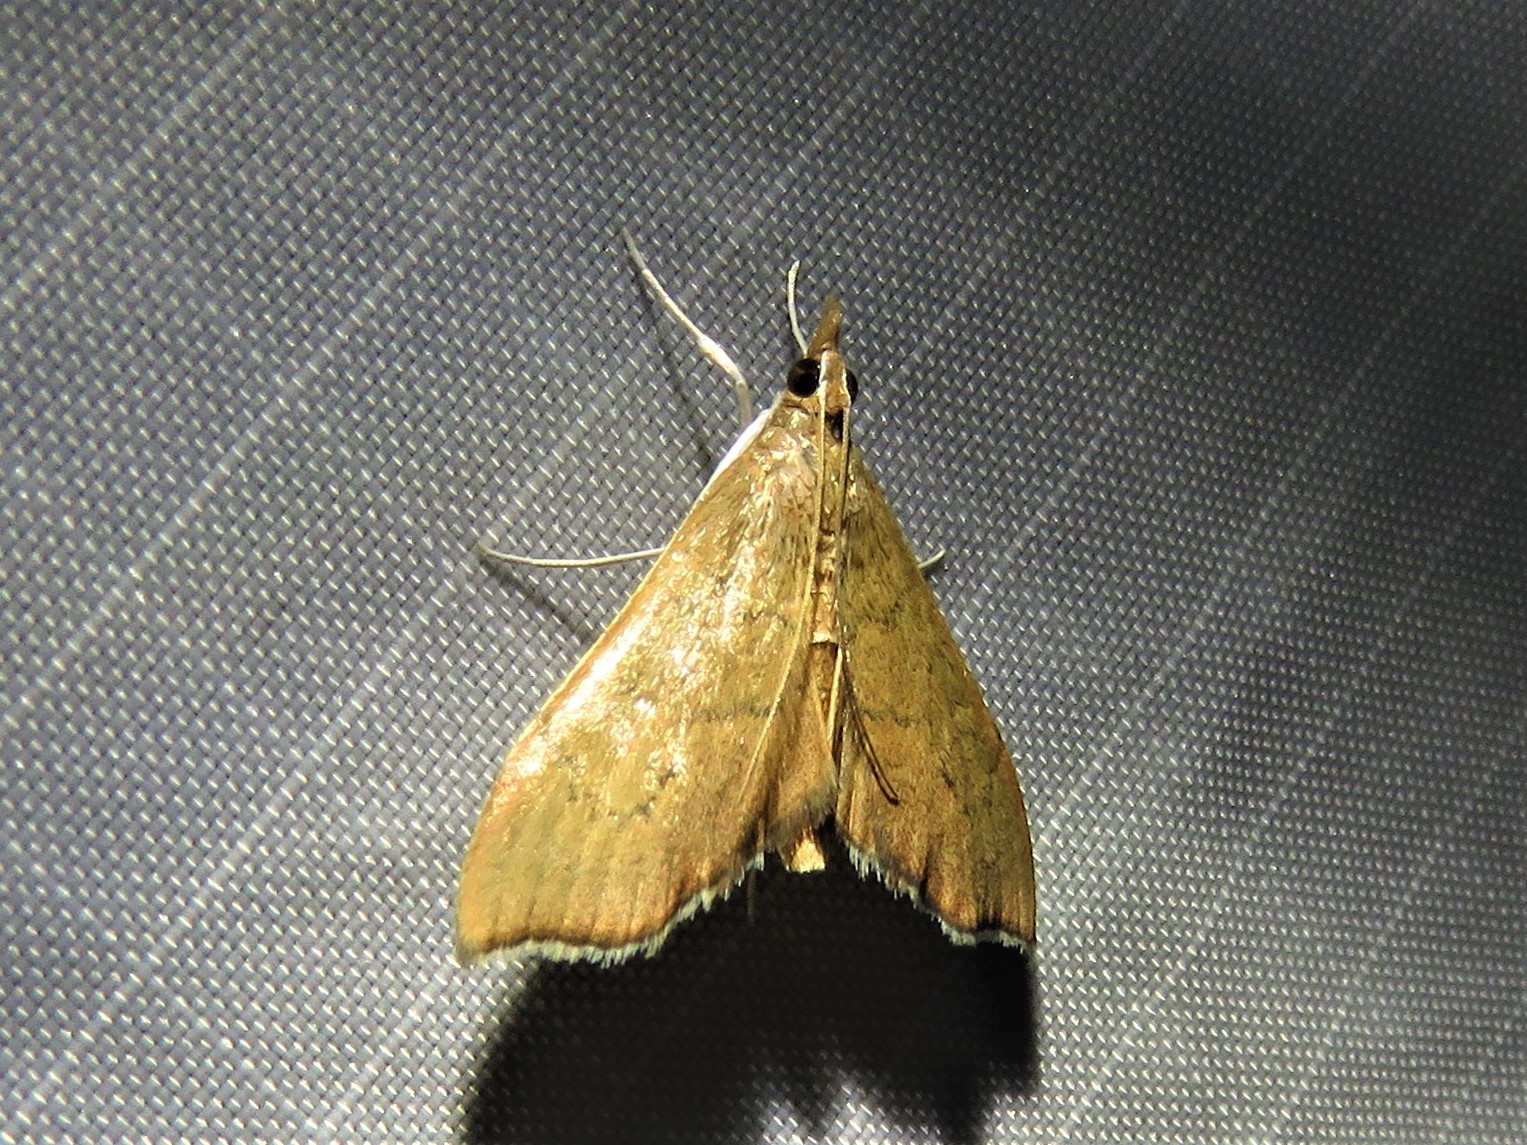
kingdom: Animalia
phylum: Arthropoda
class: Insecta
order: Lepidoptera
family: Crambidae
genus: Sericoplaga
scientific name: Sericoplaga externalis
